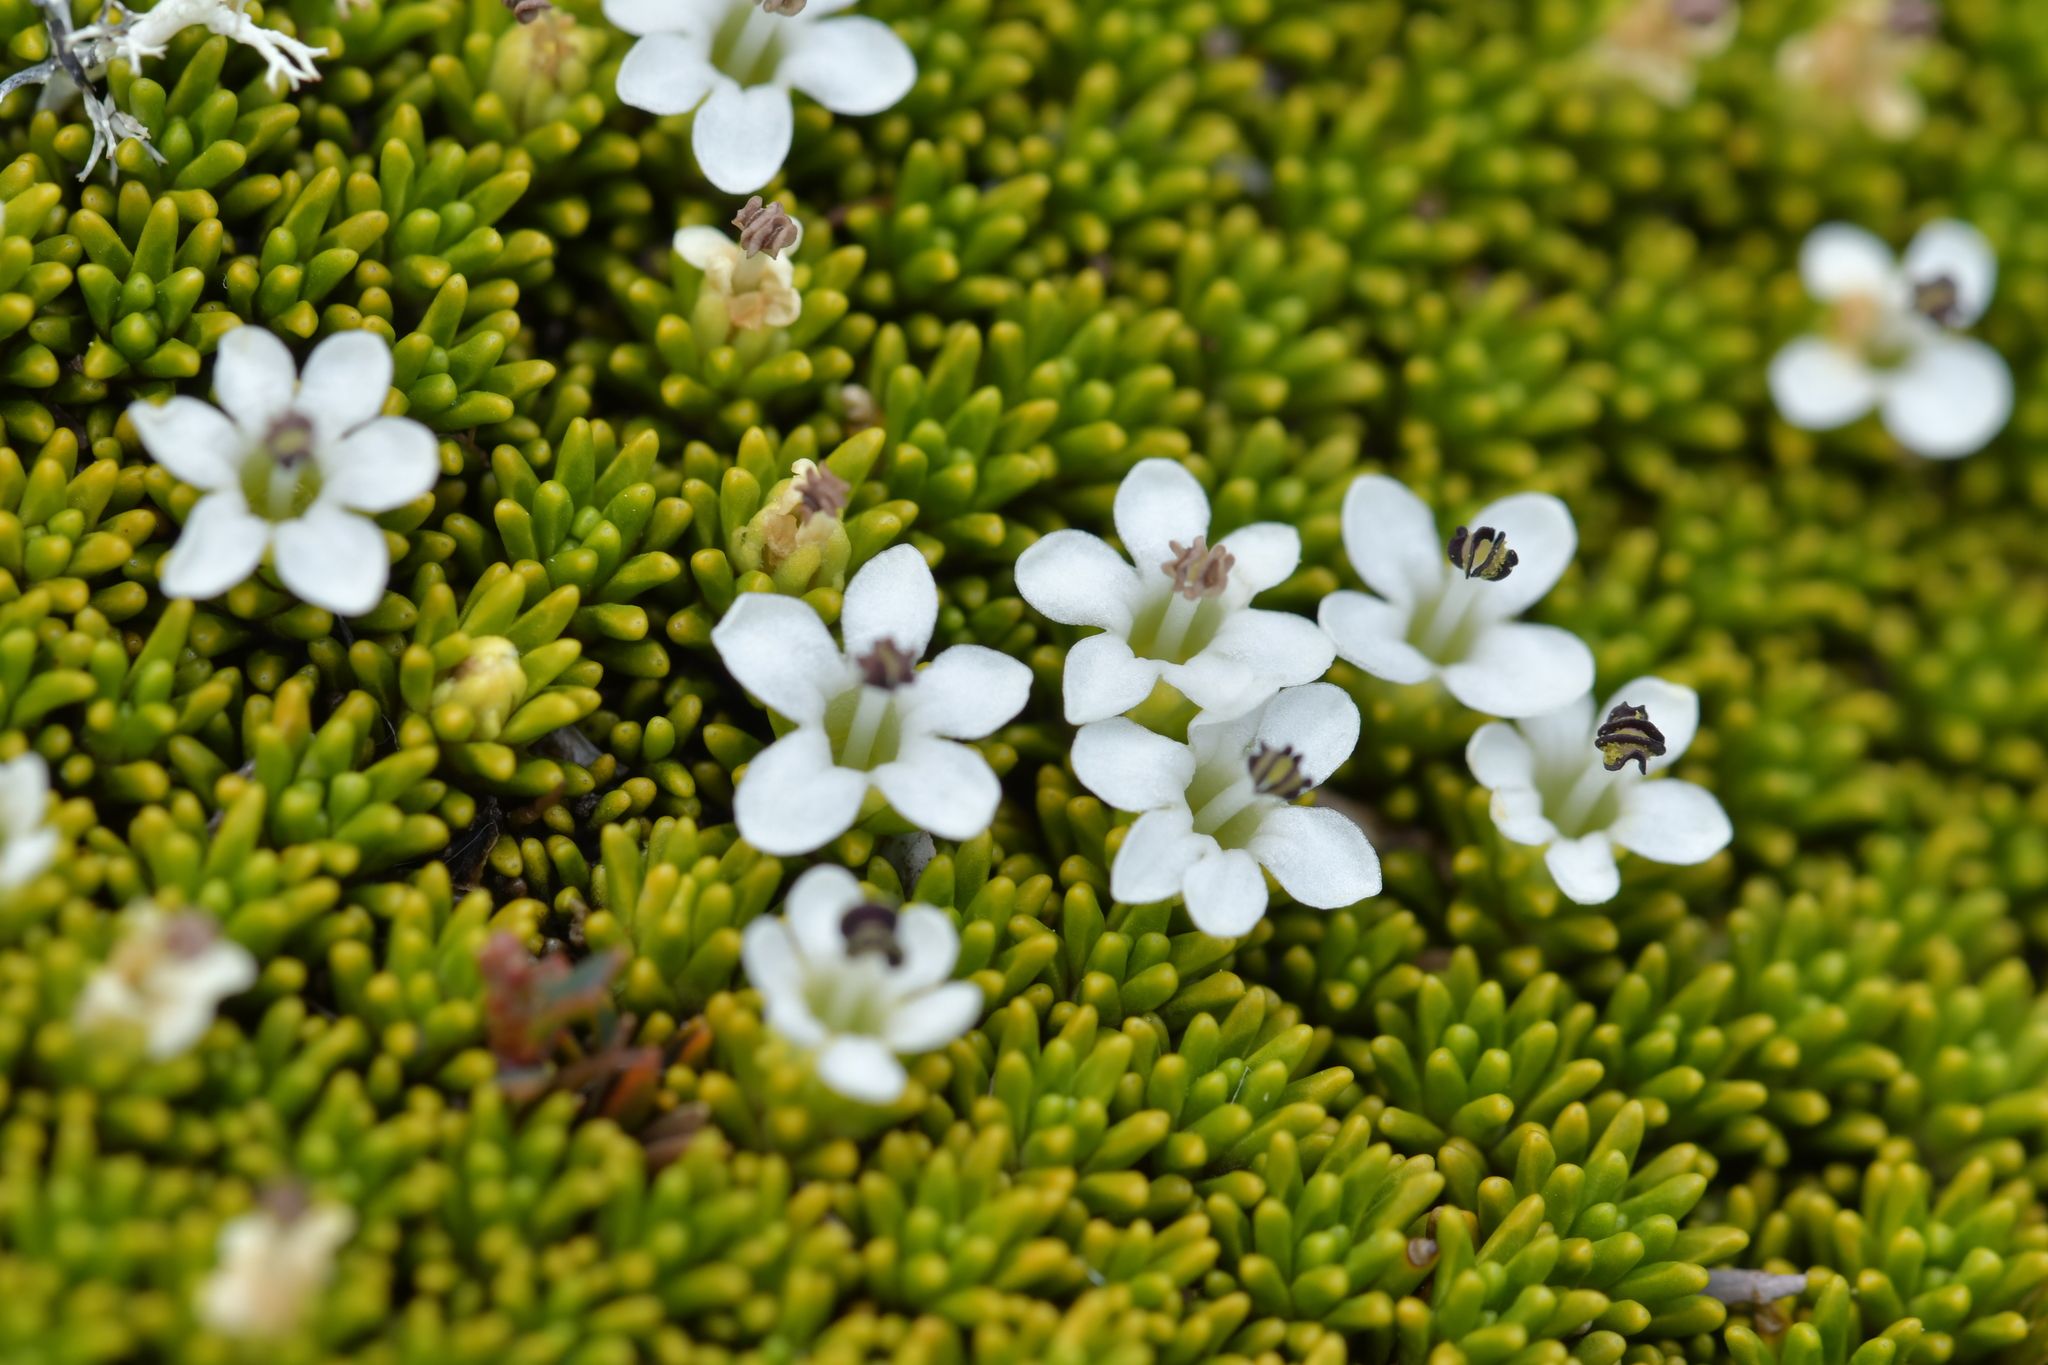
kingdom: Plantae
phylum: Tracheophyta
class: Magnoliopsida
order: Asterales
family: Stylidiaceae
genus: Phyllachne
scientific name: Phyllachne colensoi
